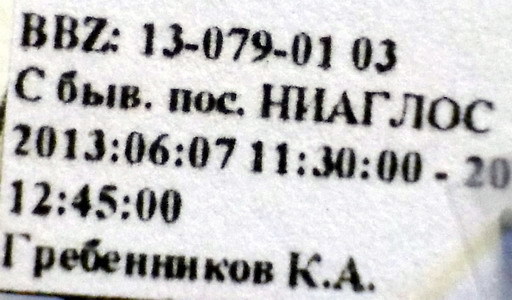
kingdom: Animalia
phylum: Arthropoda
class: Insecta
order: Hemiptera
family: Lygaeidae
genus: Nysius
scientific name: Nysius helveticus
